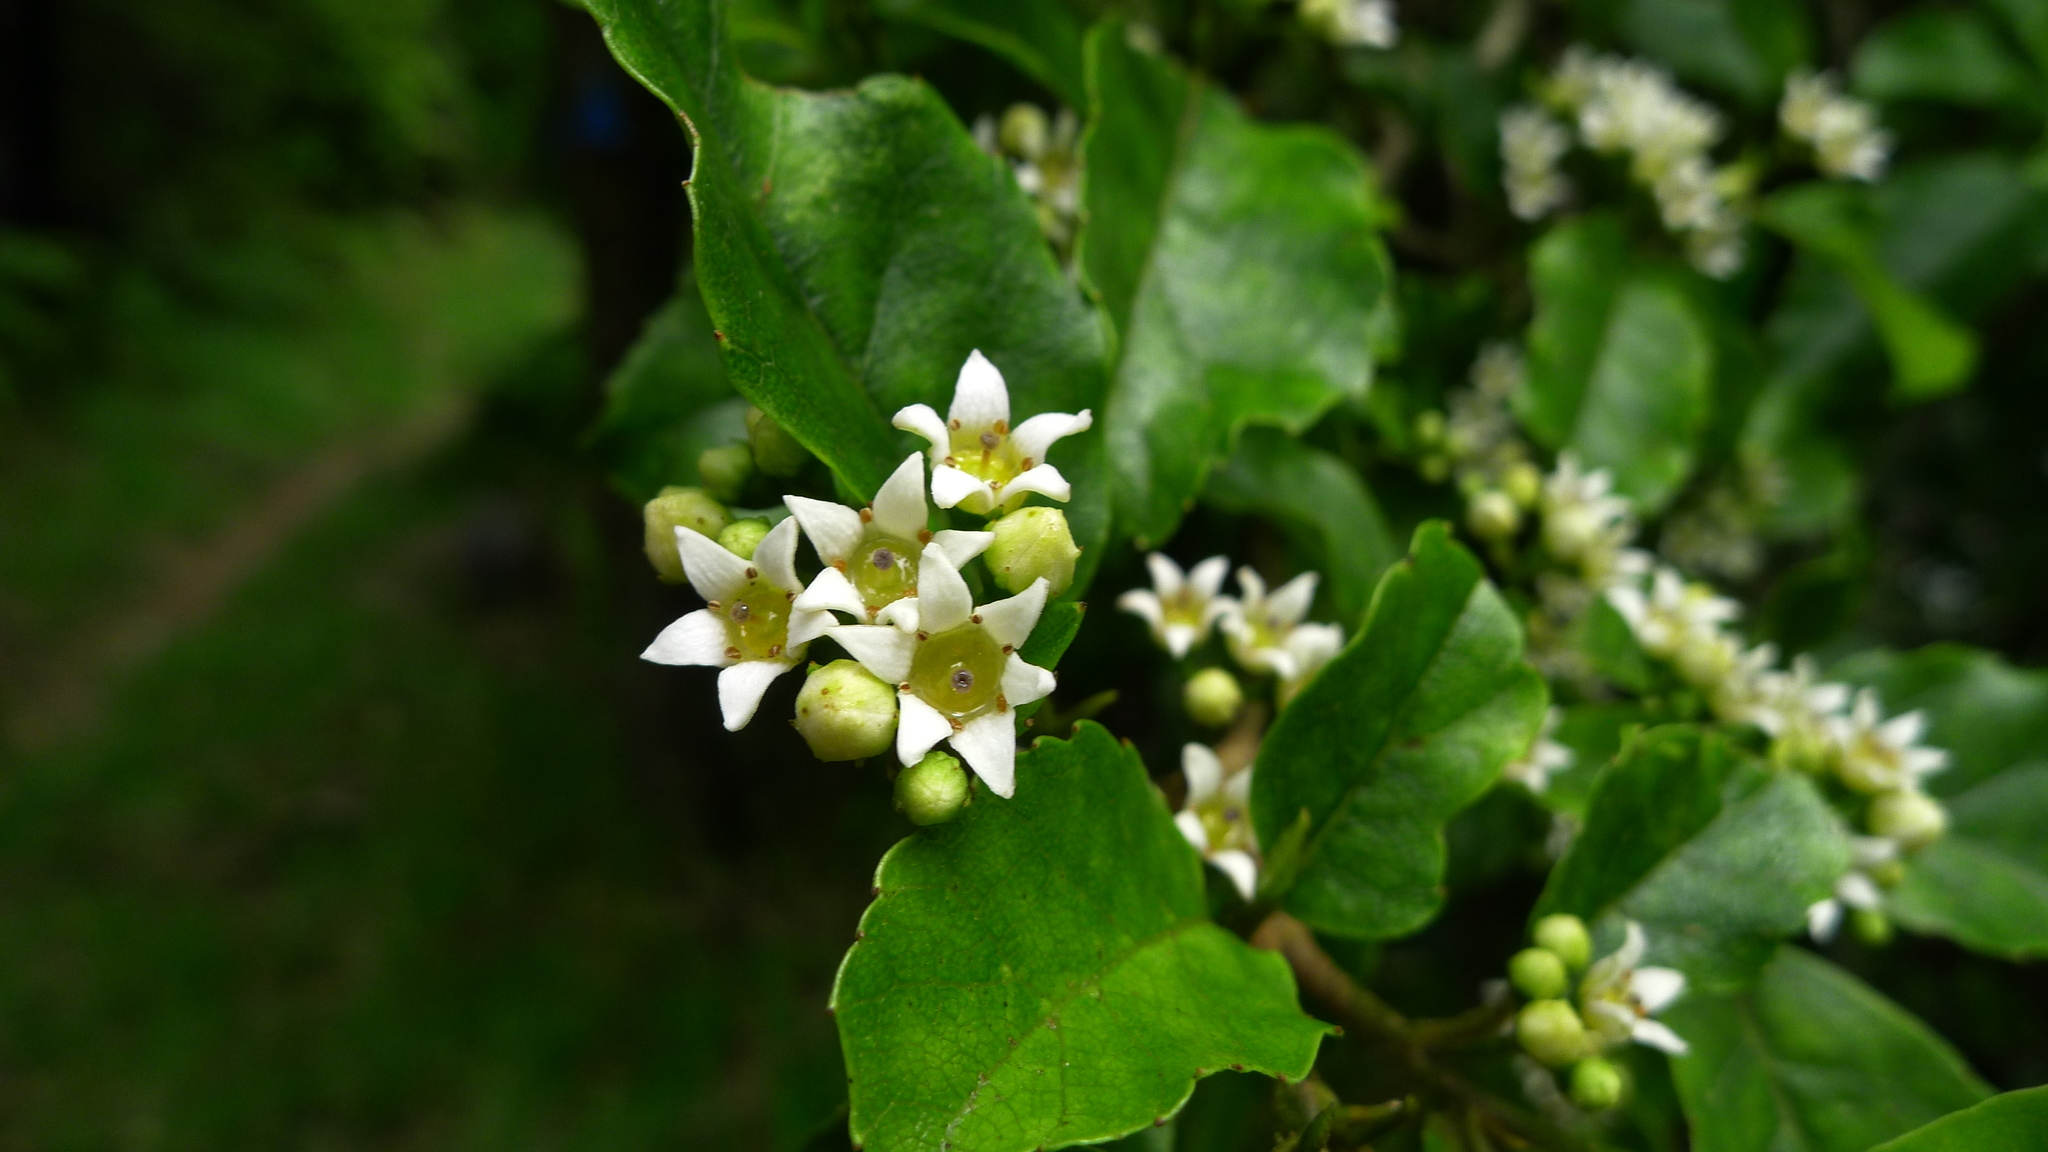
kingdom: Plantae
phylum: Tracheophyta
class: Magnoliopsida
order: Asterales
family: Rousseaceae
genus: Carpodetus
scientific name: Carpodetus serratus
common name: White mapau
